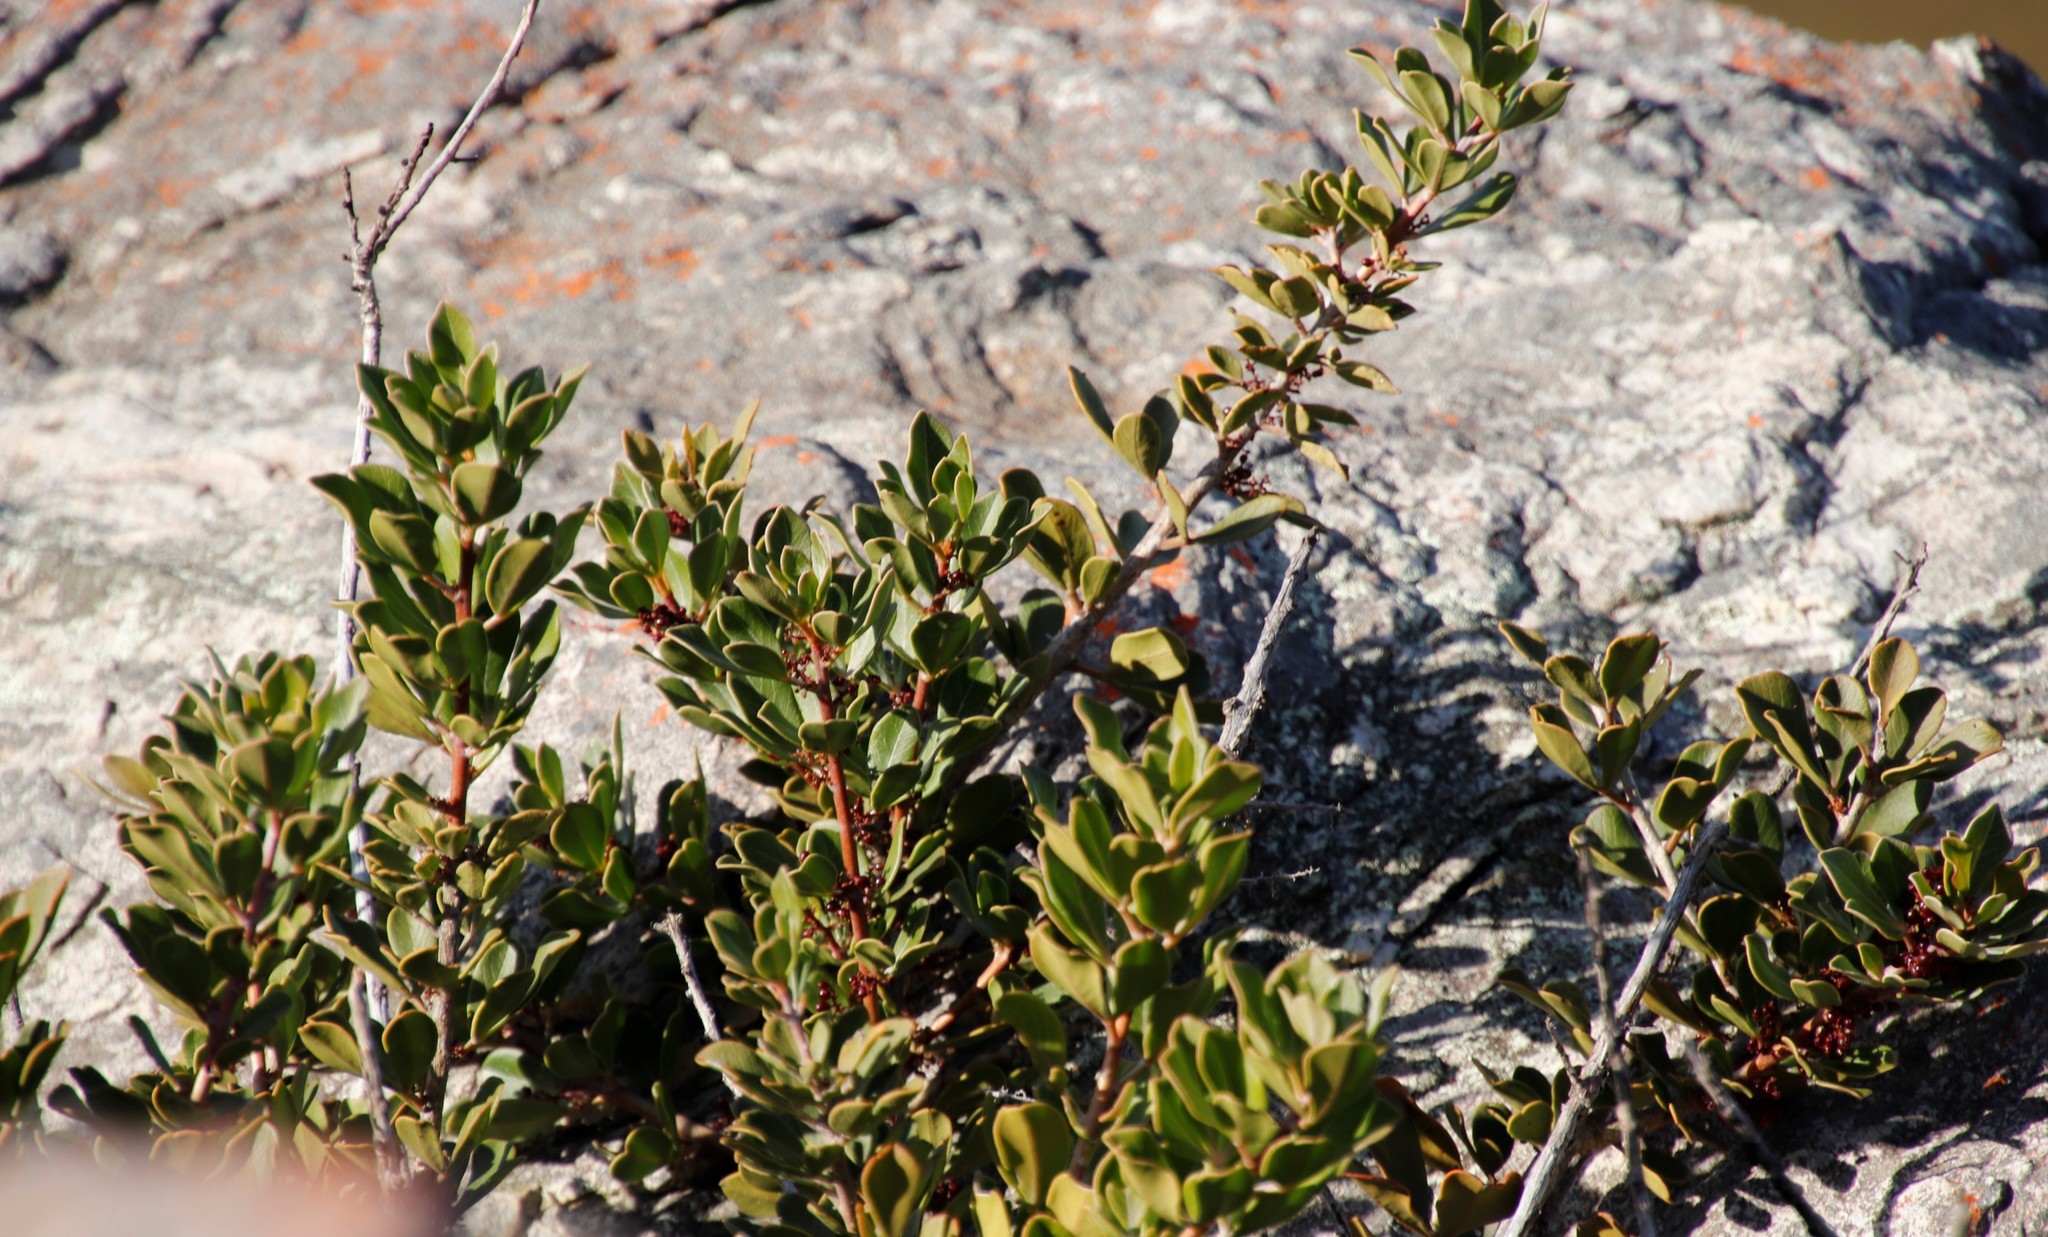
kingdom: Plantae
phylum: Tracheophyta
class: Magnoliopsida
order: Sapindales
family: Anacardiaceae
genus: Searsia
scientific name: Searsia scytophylla
